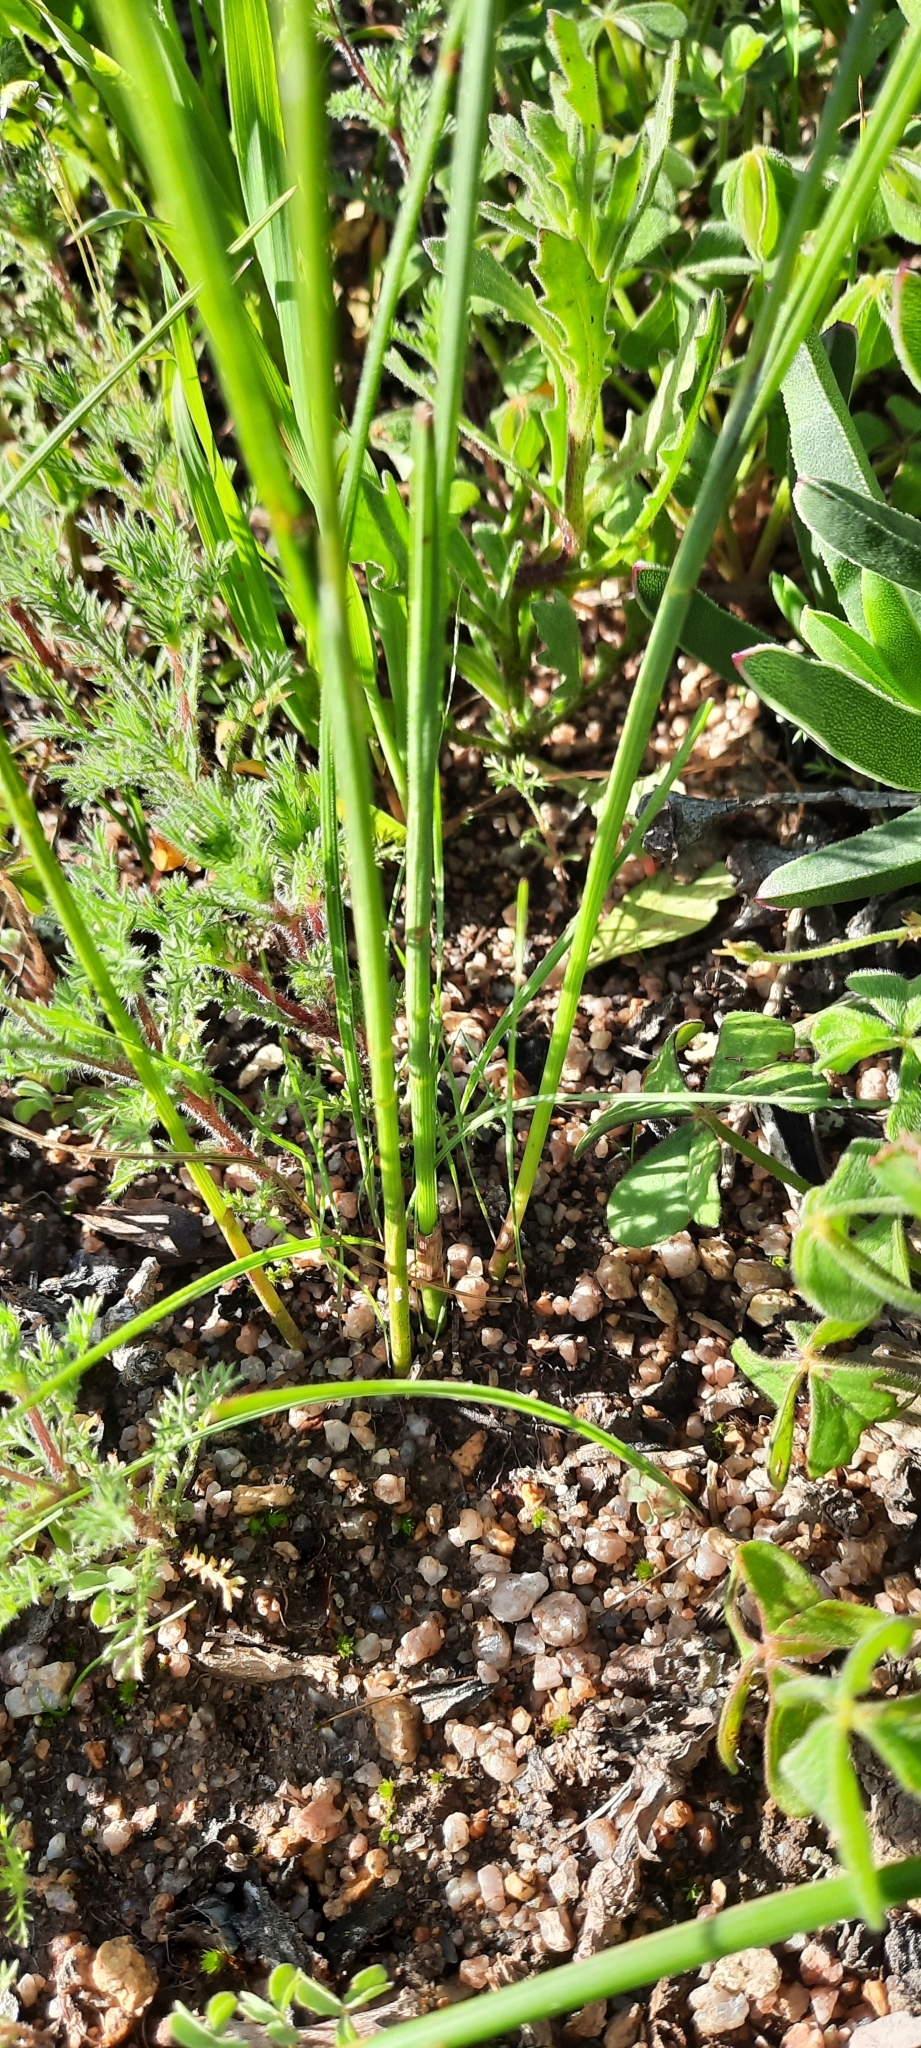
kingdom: Plantae
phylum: Tracheophyta
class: Liliopsida
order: Asparagales
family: Iridaceae
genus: Gladiolus
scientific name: Gladiolus recurvus
